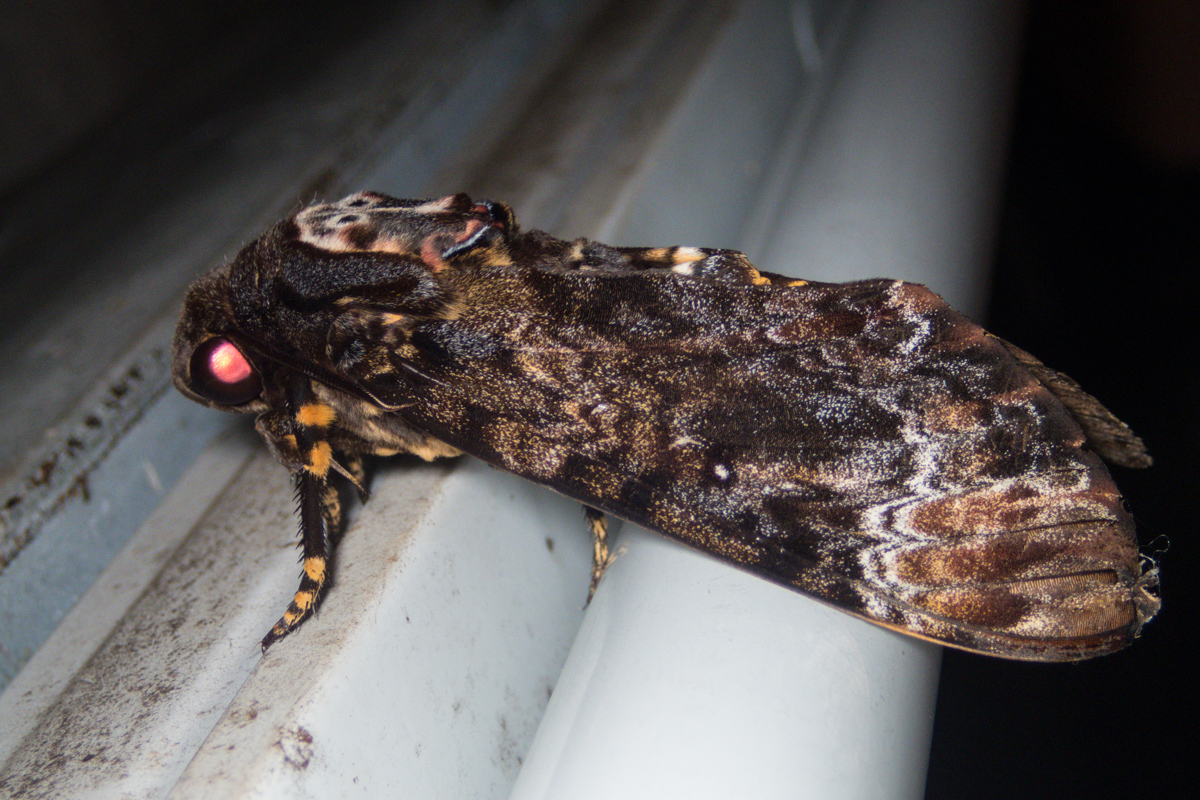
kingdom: Animalia
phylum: Arthropoda
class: Insecta
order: Lepidoptera
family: Sphingidae
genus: Acherontia
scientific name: Acherontia lachesis
